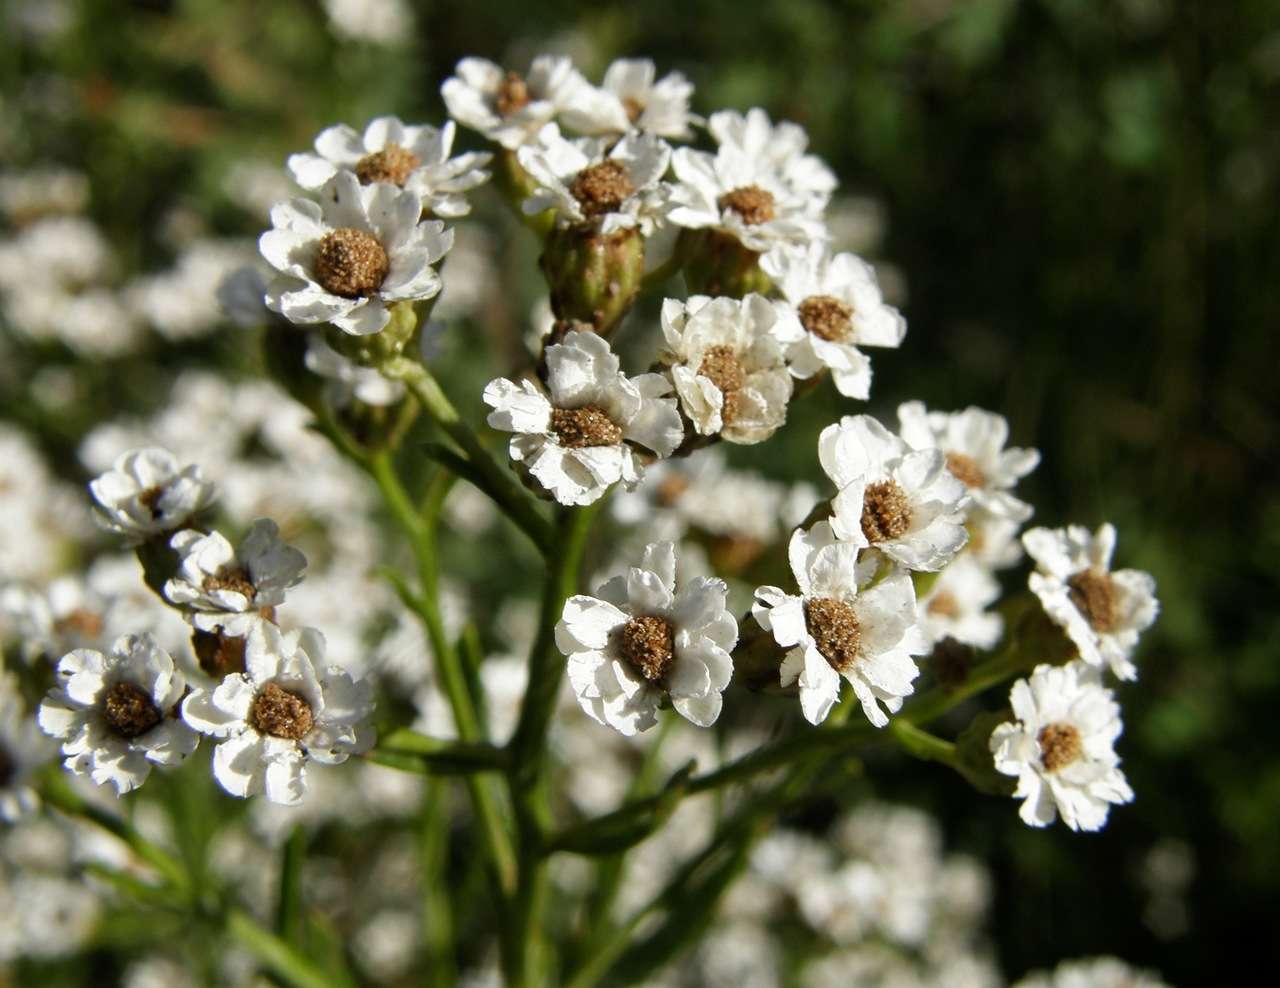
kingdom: Plantae
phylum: Tracheophyta
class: Magnoliopsida
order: Asterales
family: Asteraceae
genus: Ixodia
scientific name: Ixodia achillaeoides
